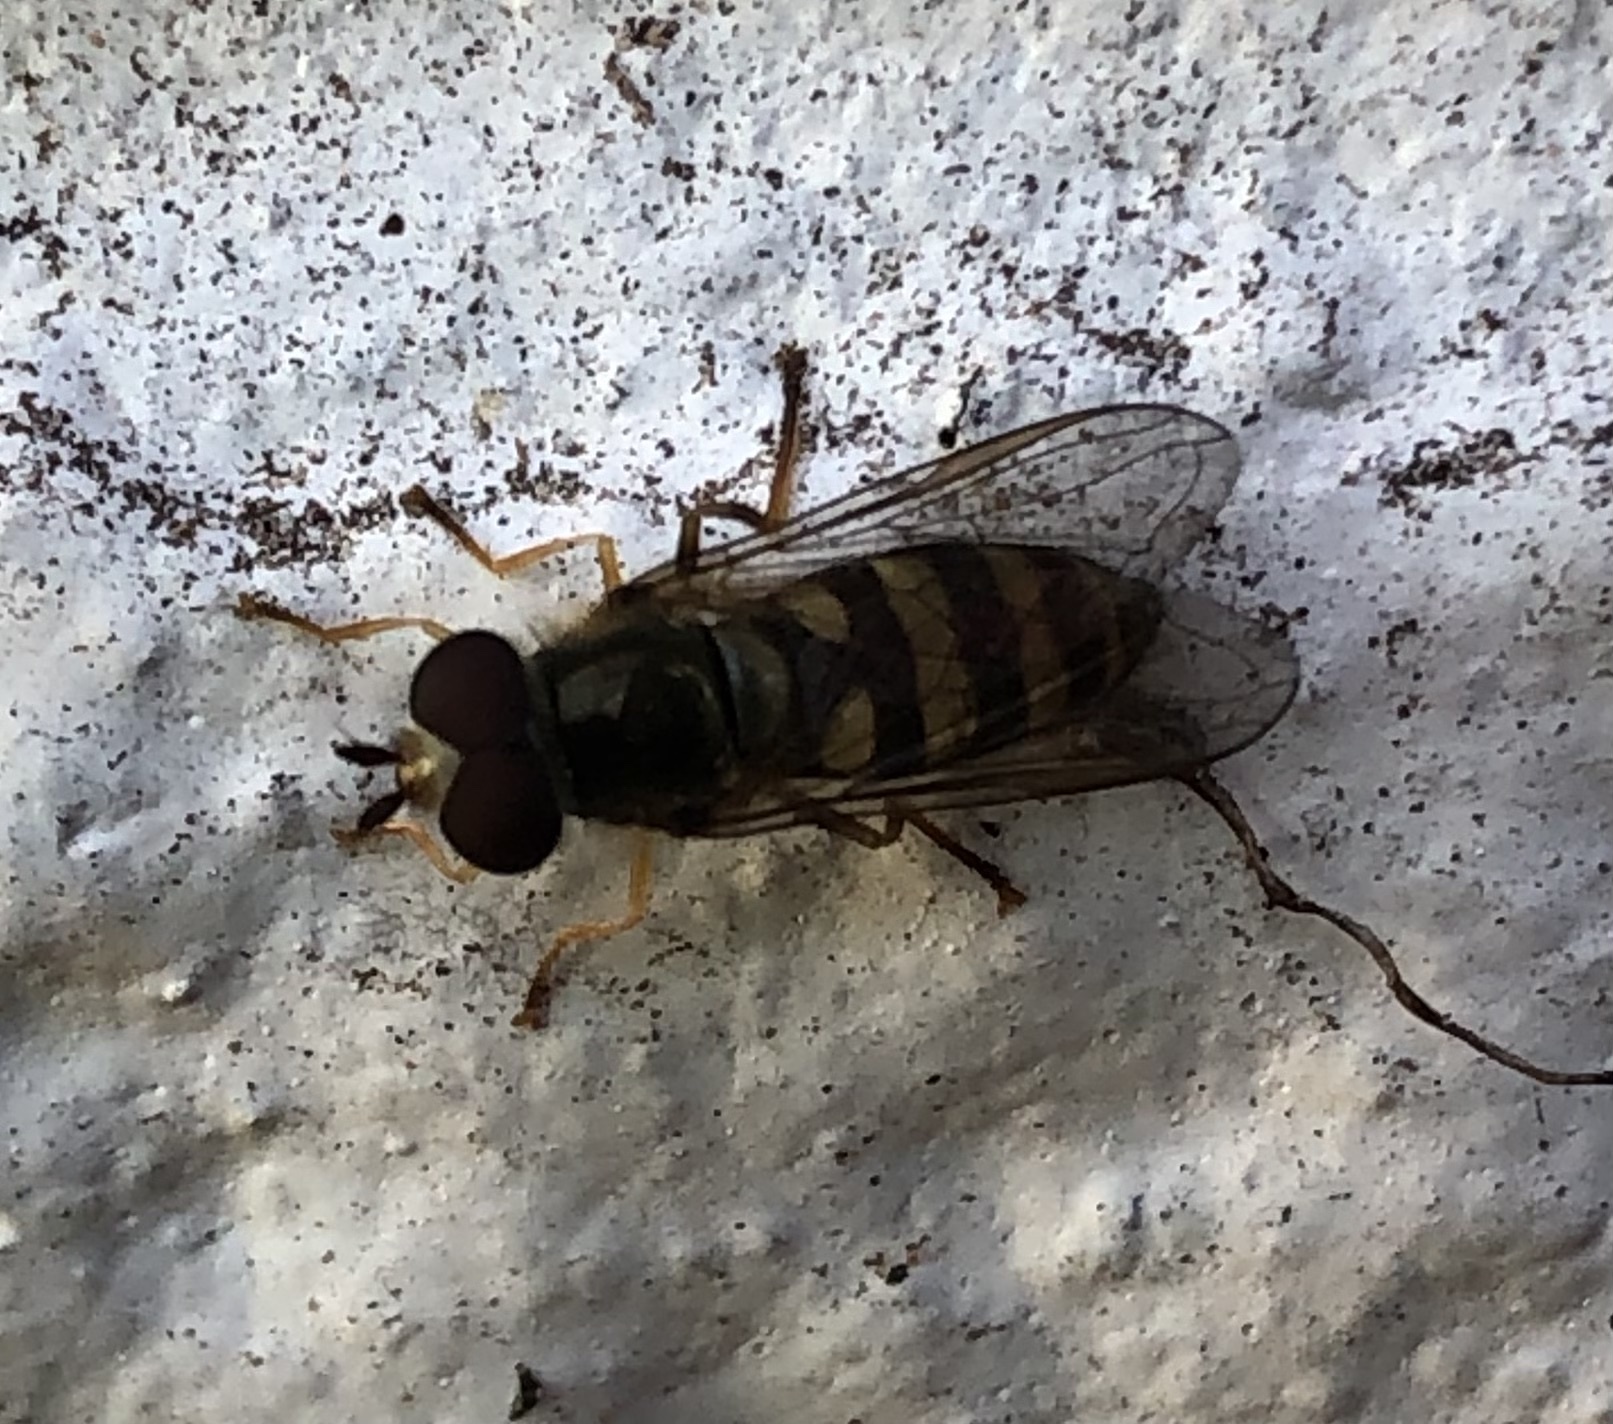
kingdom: Animalia
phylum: Arthropoda
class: Insecta
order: Diptera
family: Syrphidae
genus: Eupeodes
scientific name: Eupeodes
